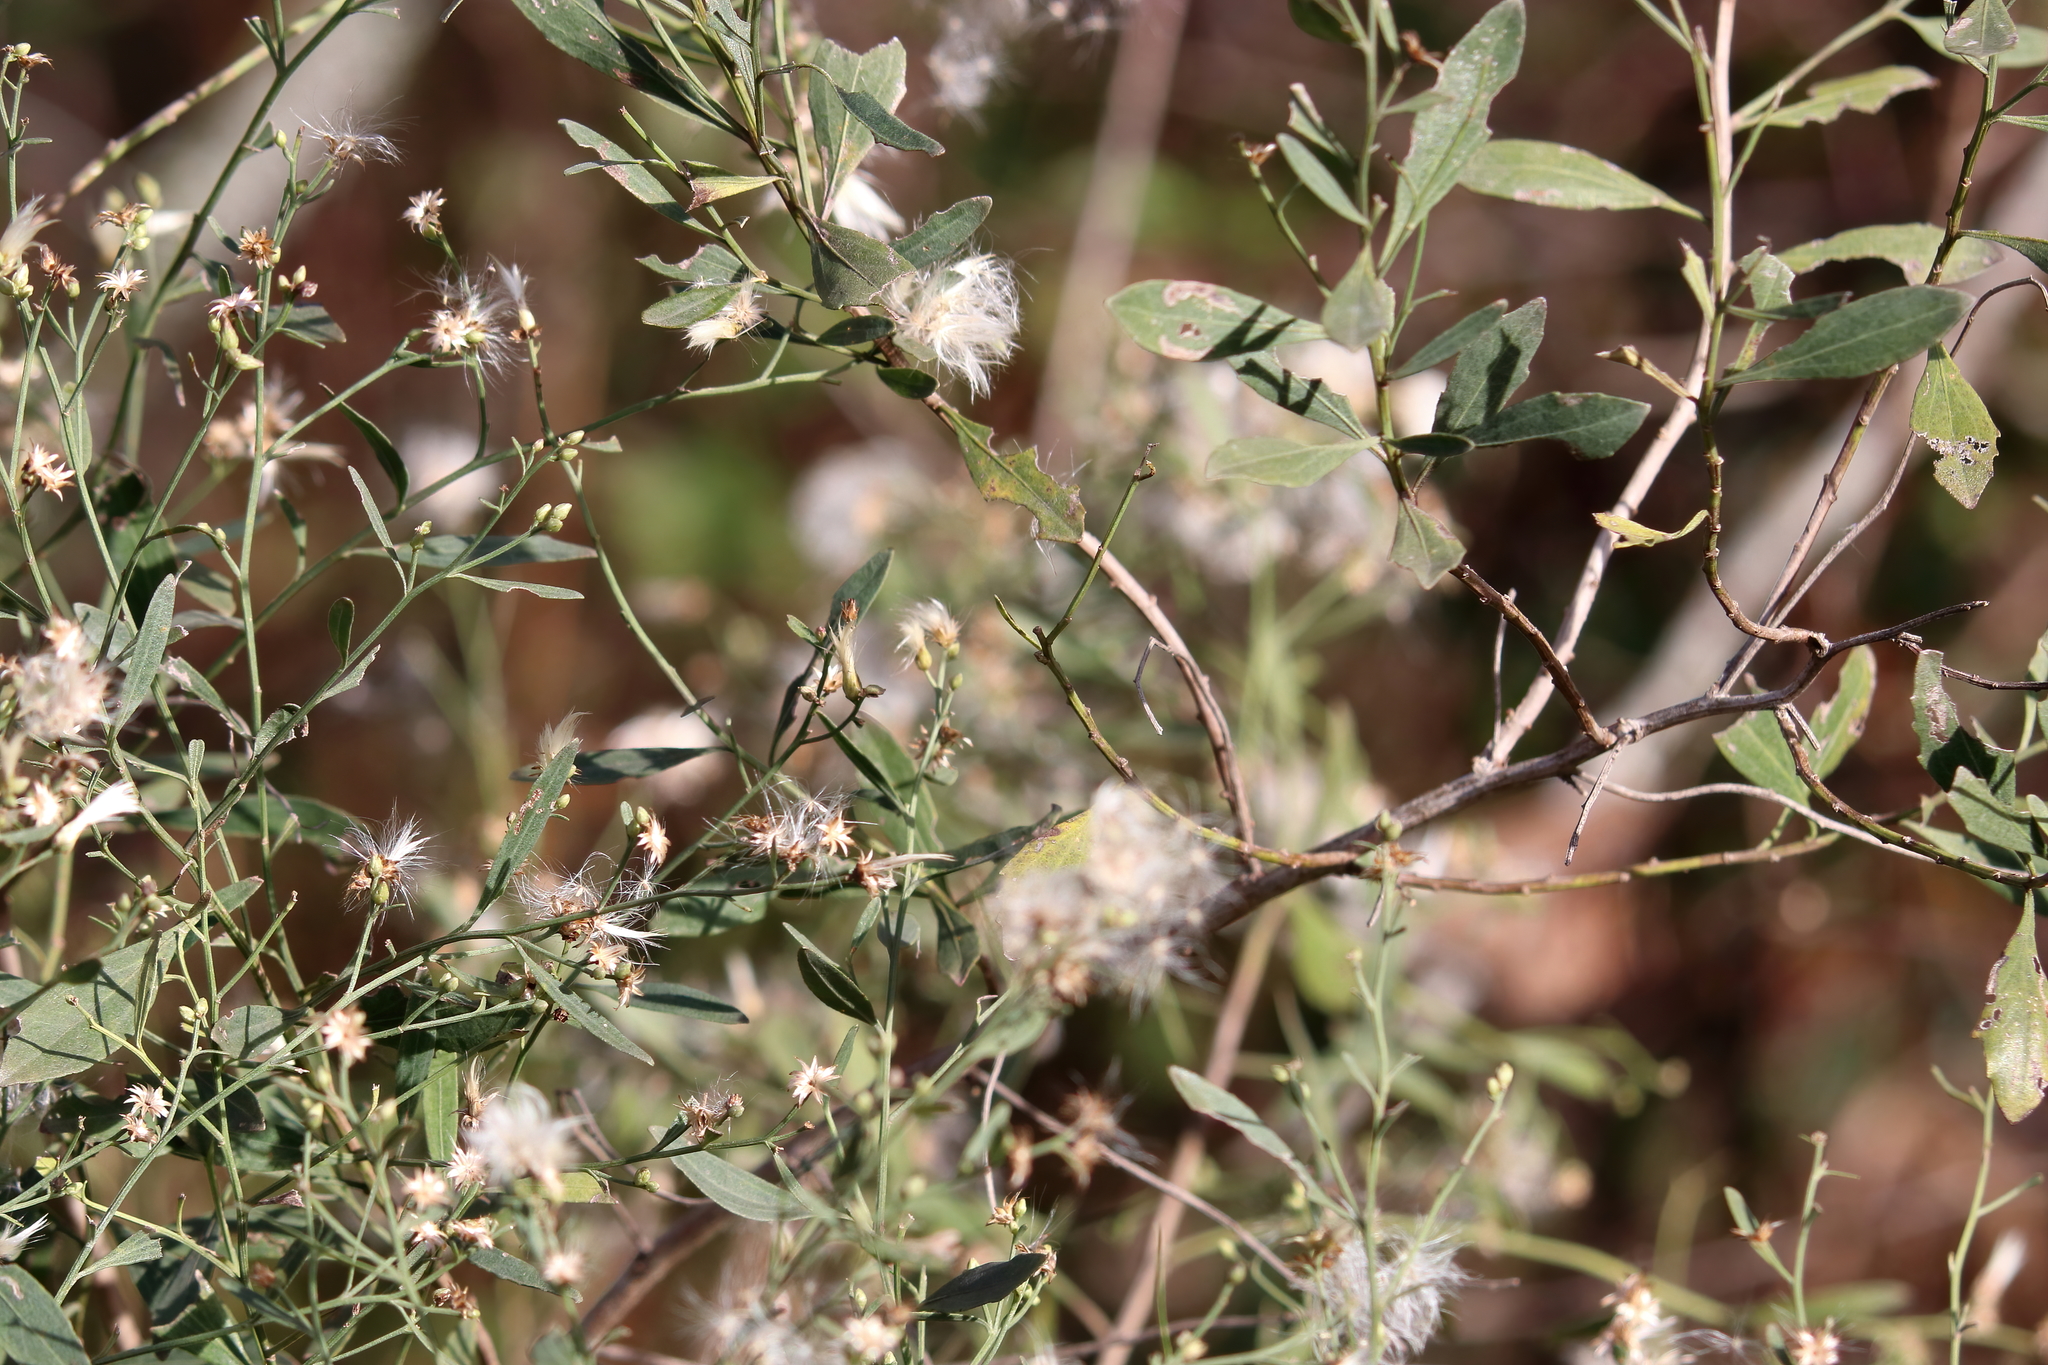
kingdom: Plantae
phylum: Tracheophyta
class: Magnoliopsida
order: Asterales
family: Asteraceae
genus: Baccharis
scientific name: Baccharis halimifolia
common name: Eastern baccharis
